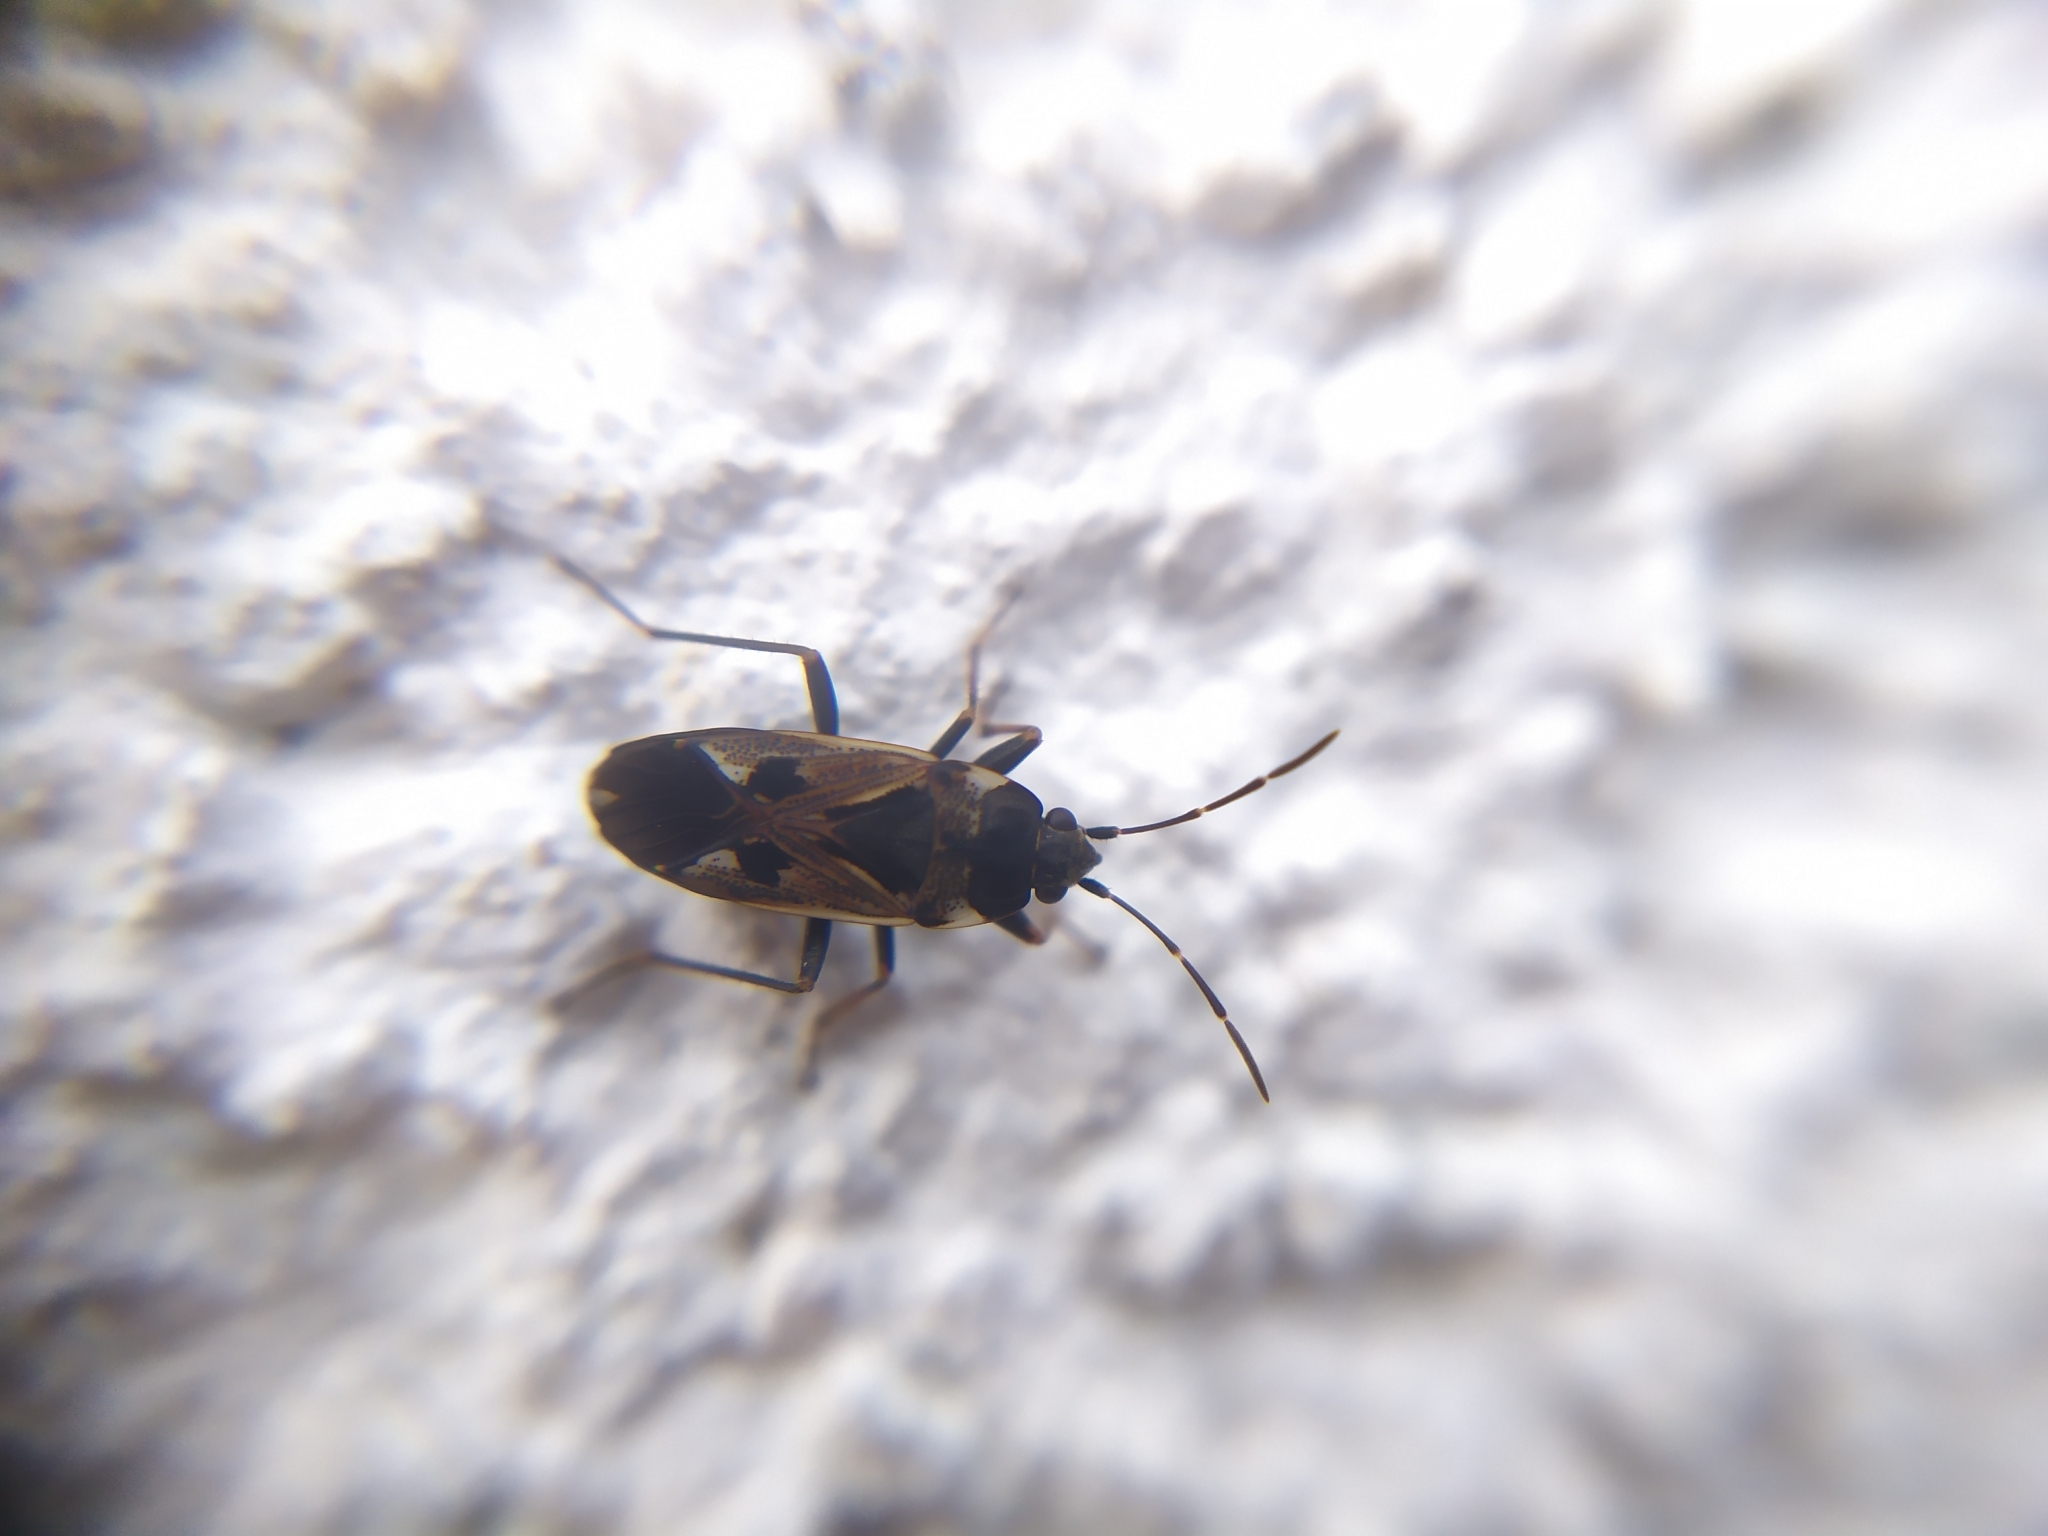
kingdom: Animalia
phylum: Arthropoda
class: Insecta
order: Hemiptera
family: Rhyparochromidae
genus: Rhyparochromus
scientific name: Rhyparochromus vulgaris
